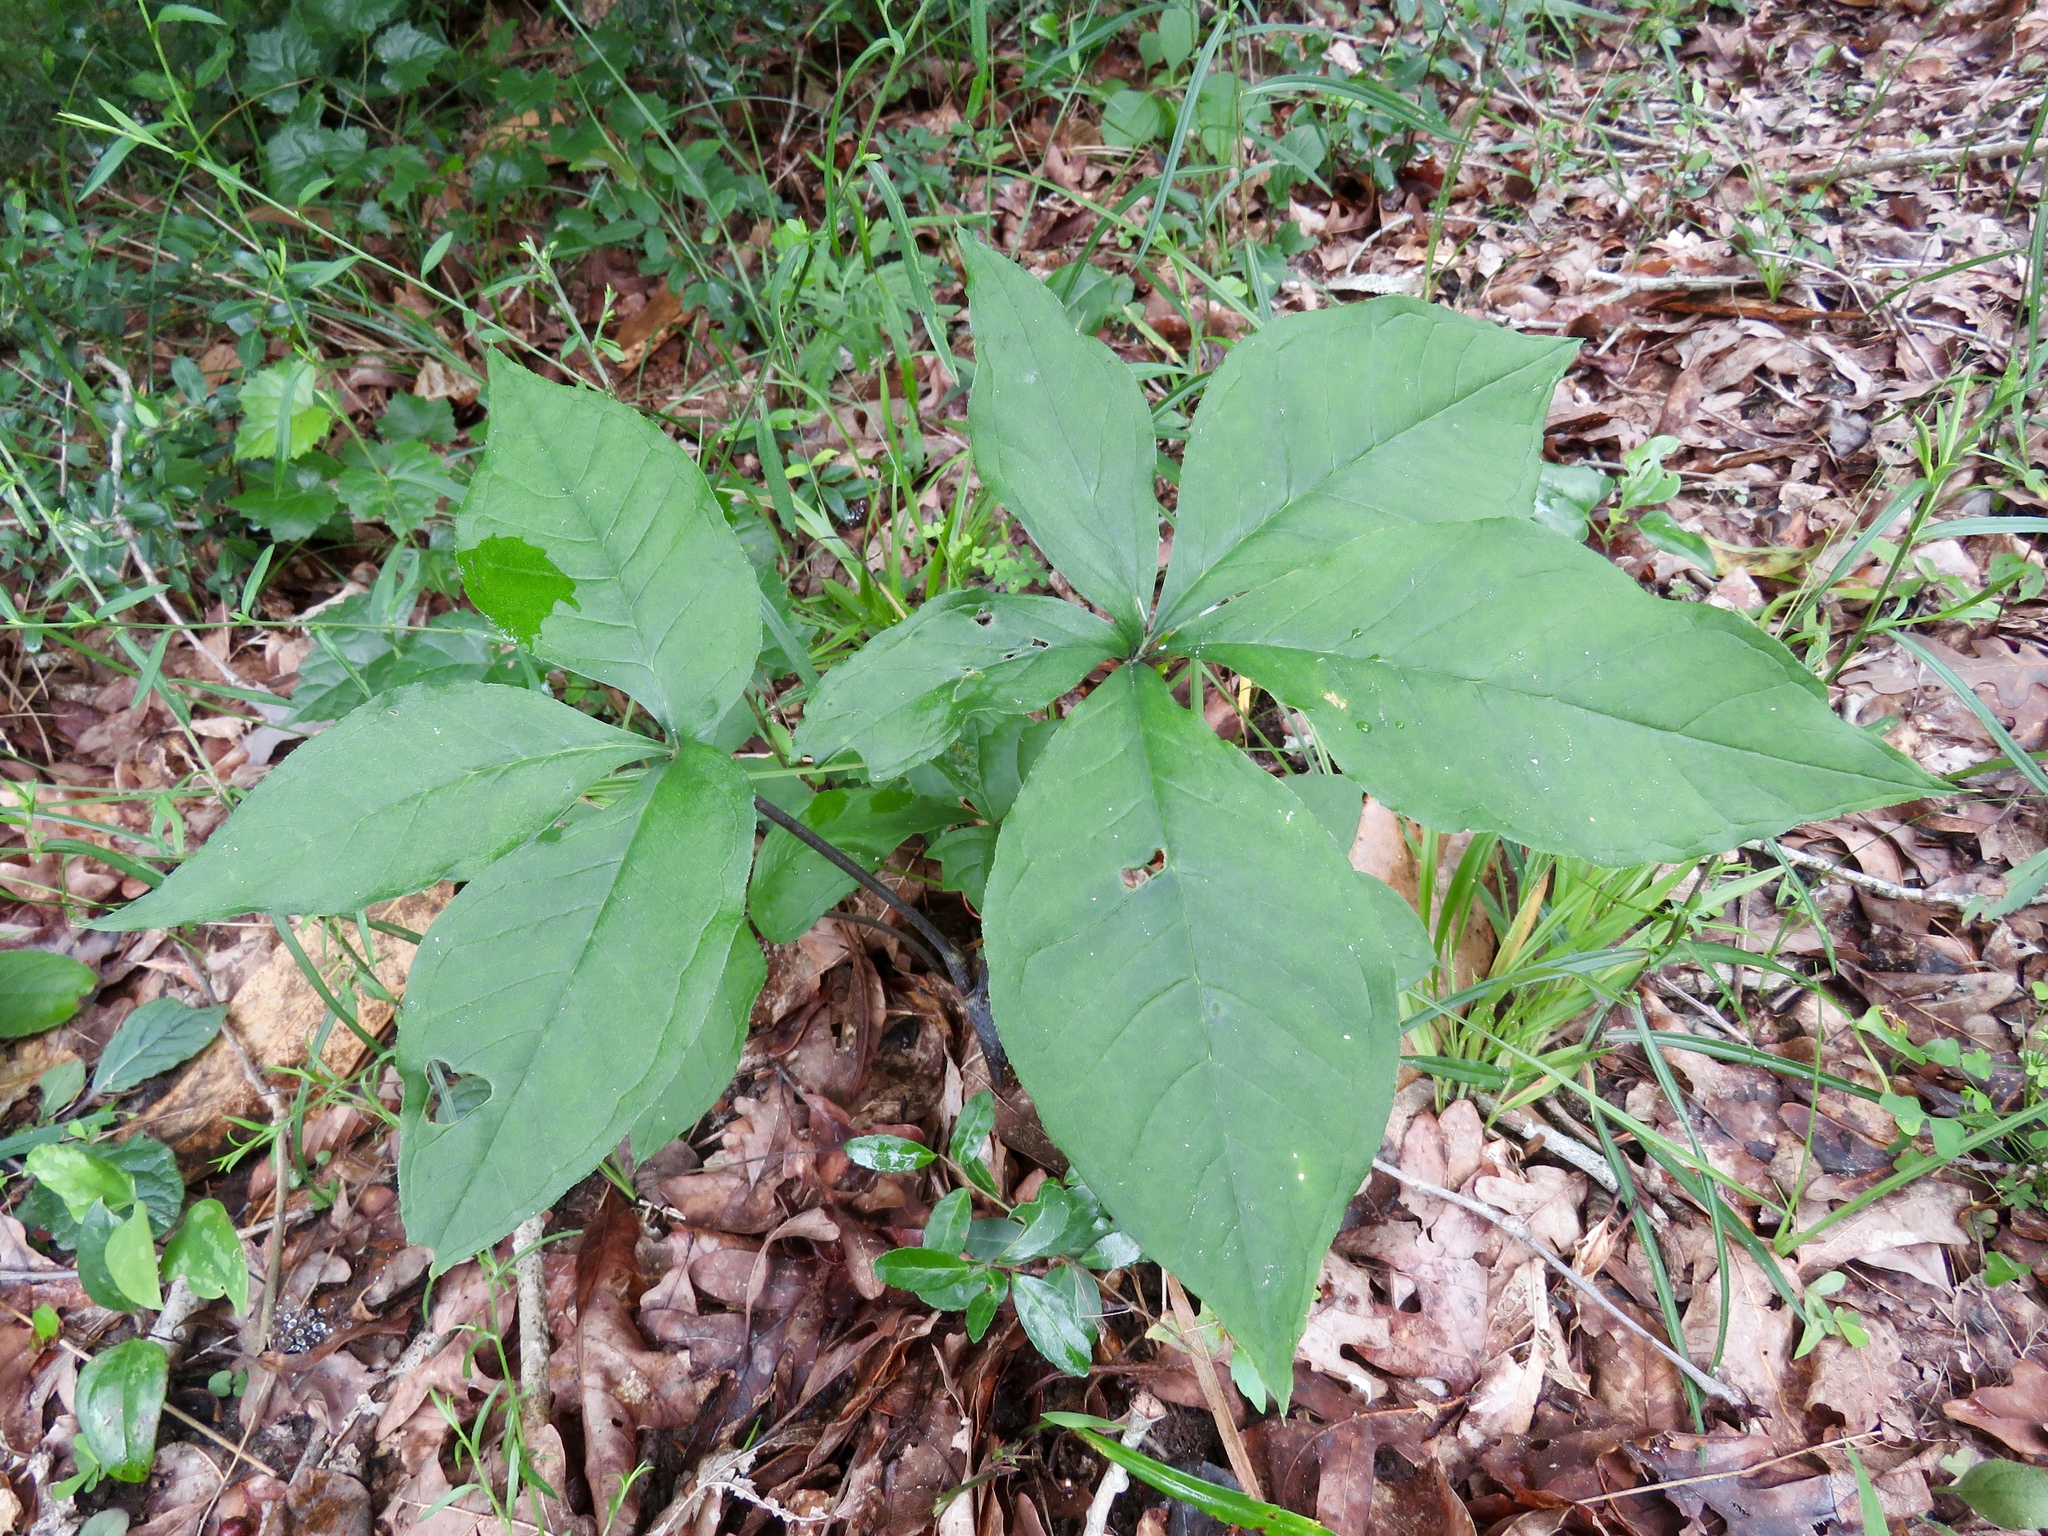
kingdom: Plantae
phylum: Tracheophyta
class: Liliopsida
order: Alismatales
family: Araceae
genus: Arisaema
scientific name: Arisaema quinatum
